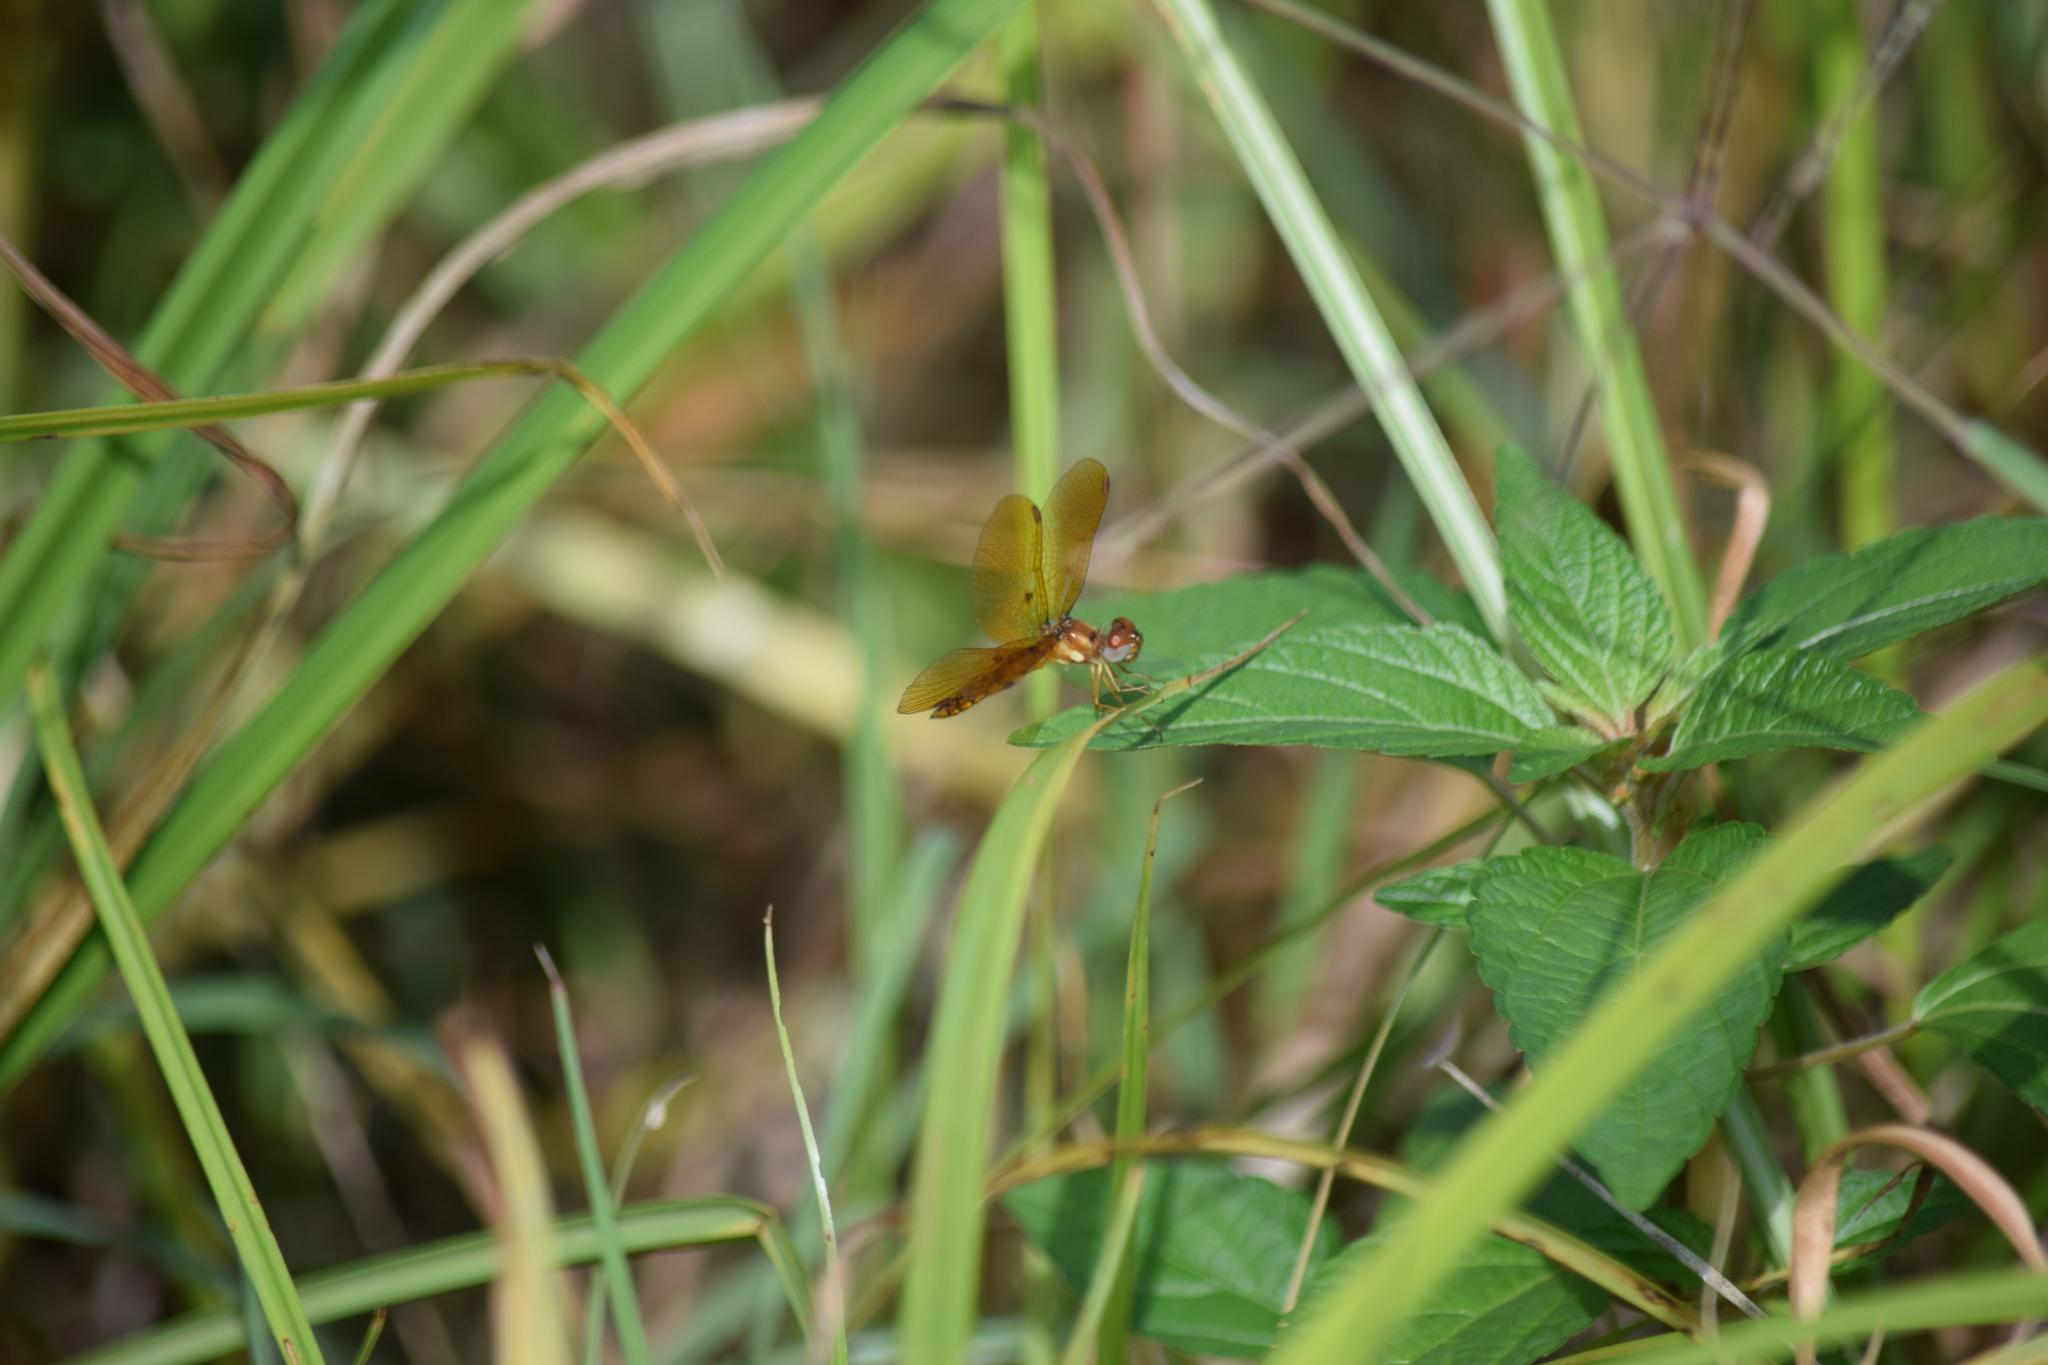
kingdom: Animalia
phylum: Arthropoda
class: Insecta
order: Odonata
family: Libellulidae
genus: Perithemis
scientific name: Perithemis tenera
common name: Eastern amberwing
